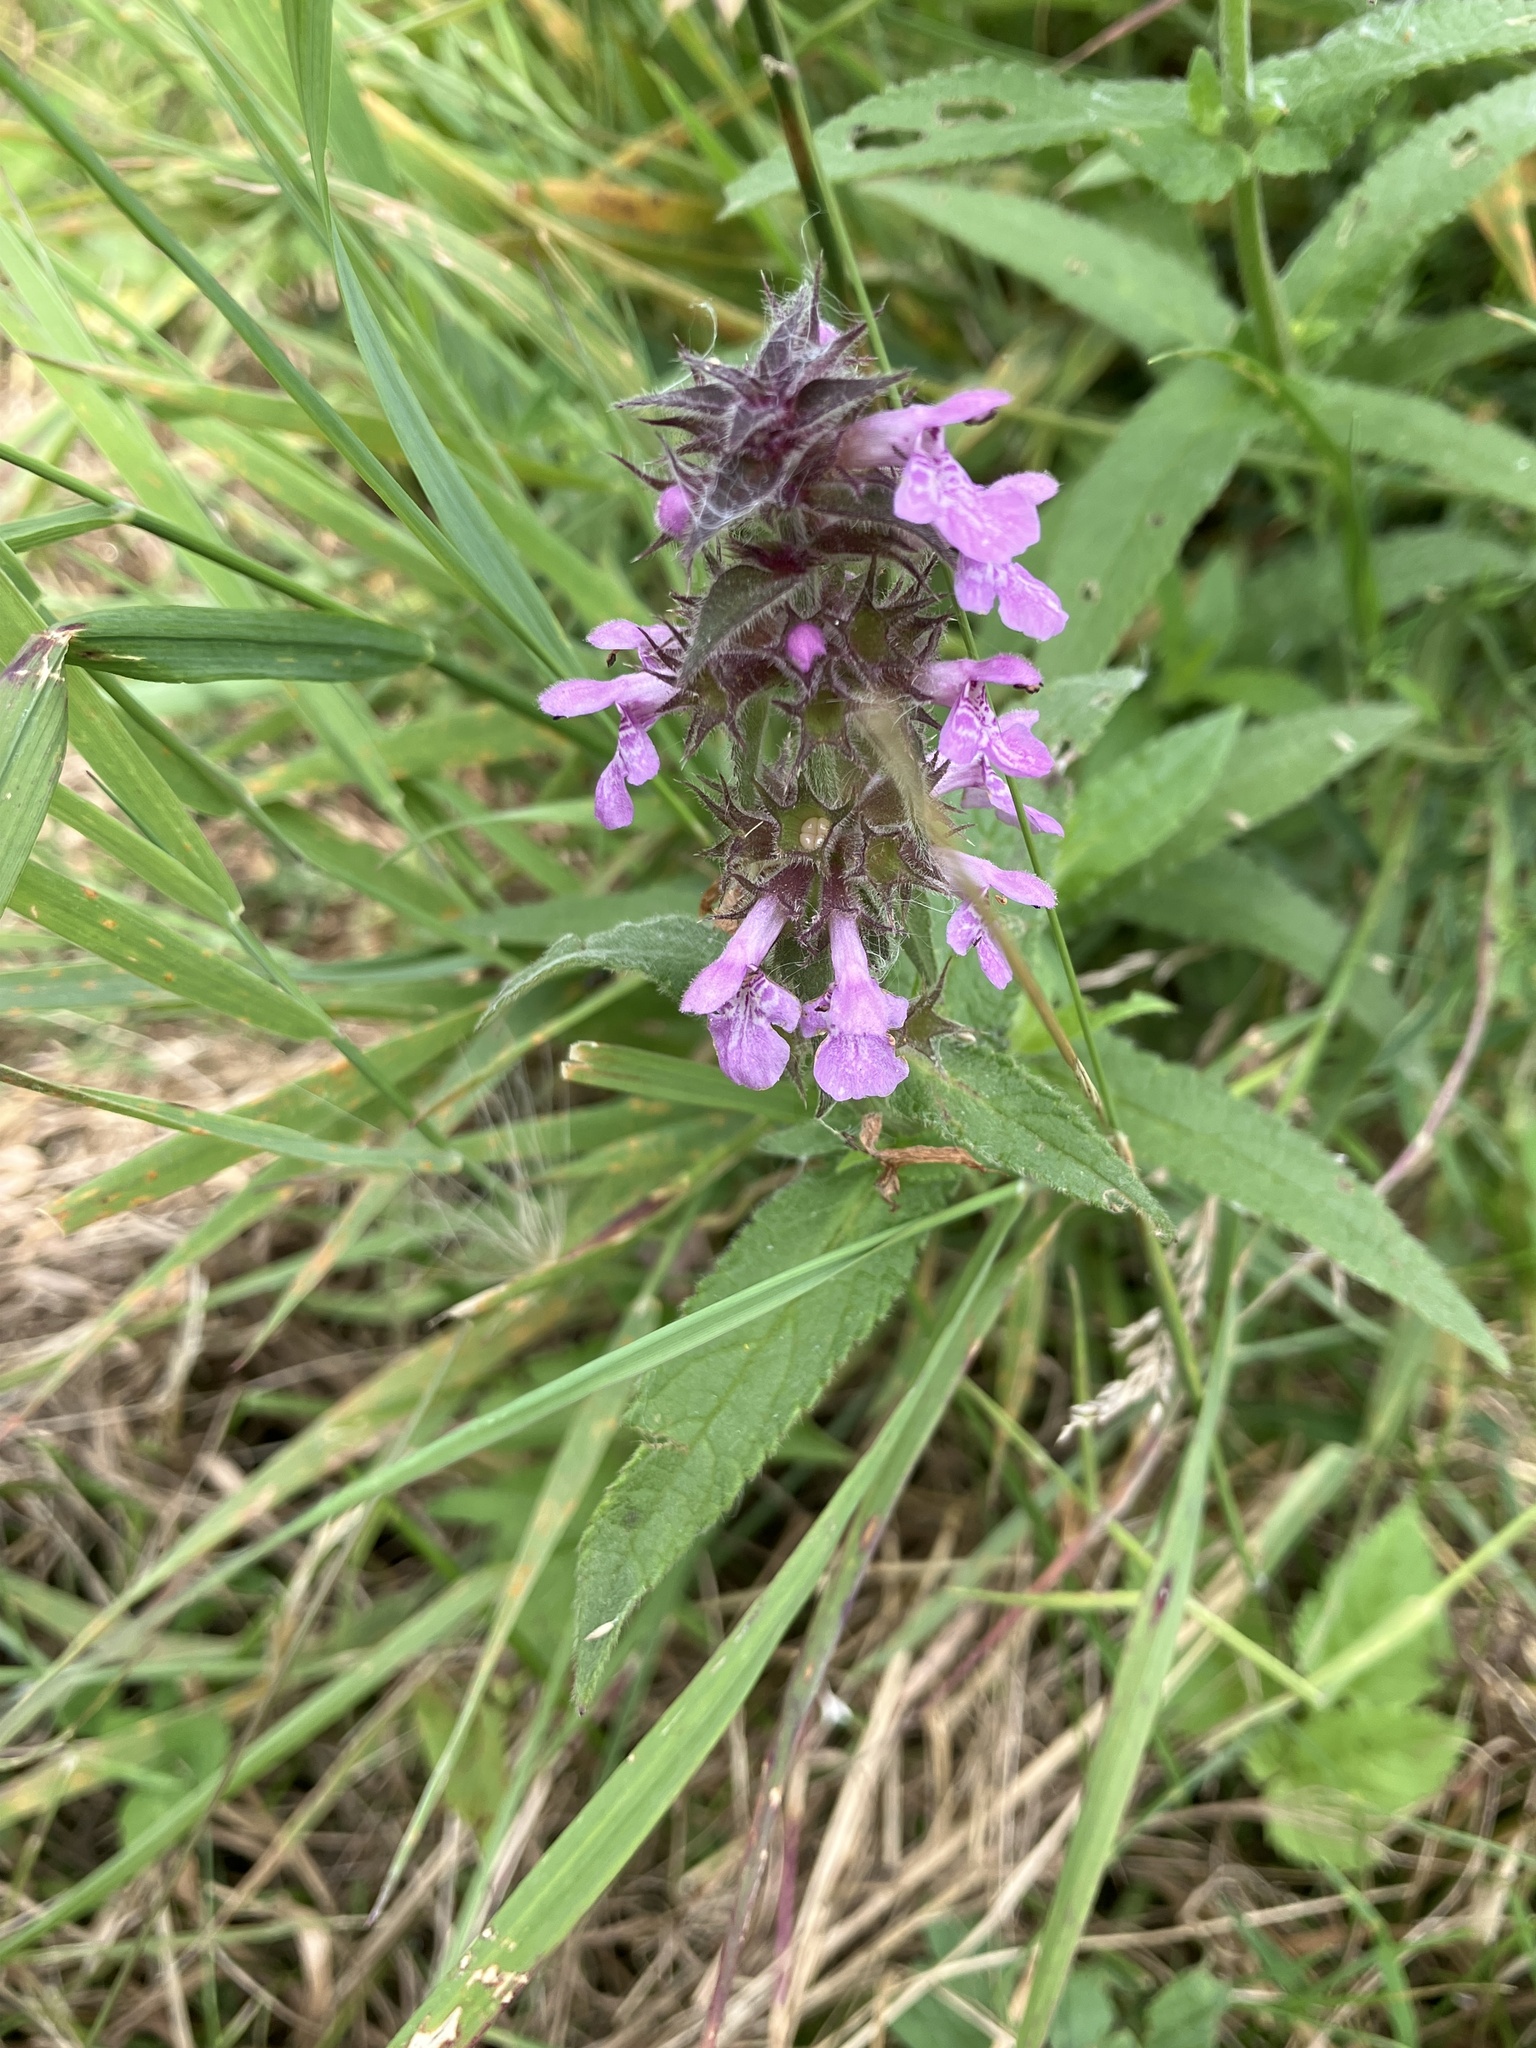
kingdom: Plantae
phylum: Tracheophyta
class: Magnoliopsida
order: Lamiales
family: Lamiaceae
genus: Stachys
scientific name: Stachys palustris
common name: Marsh woundwort
